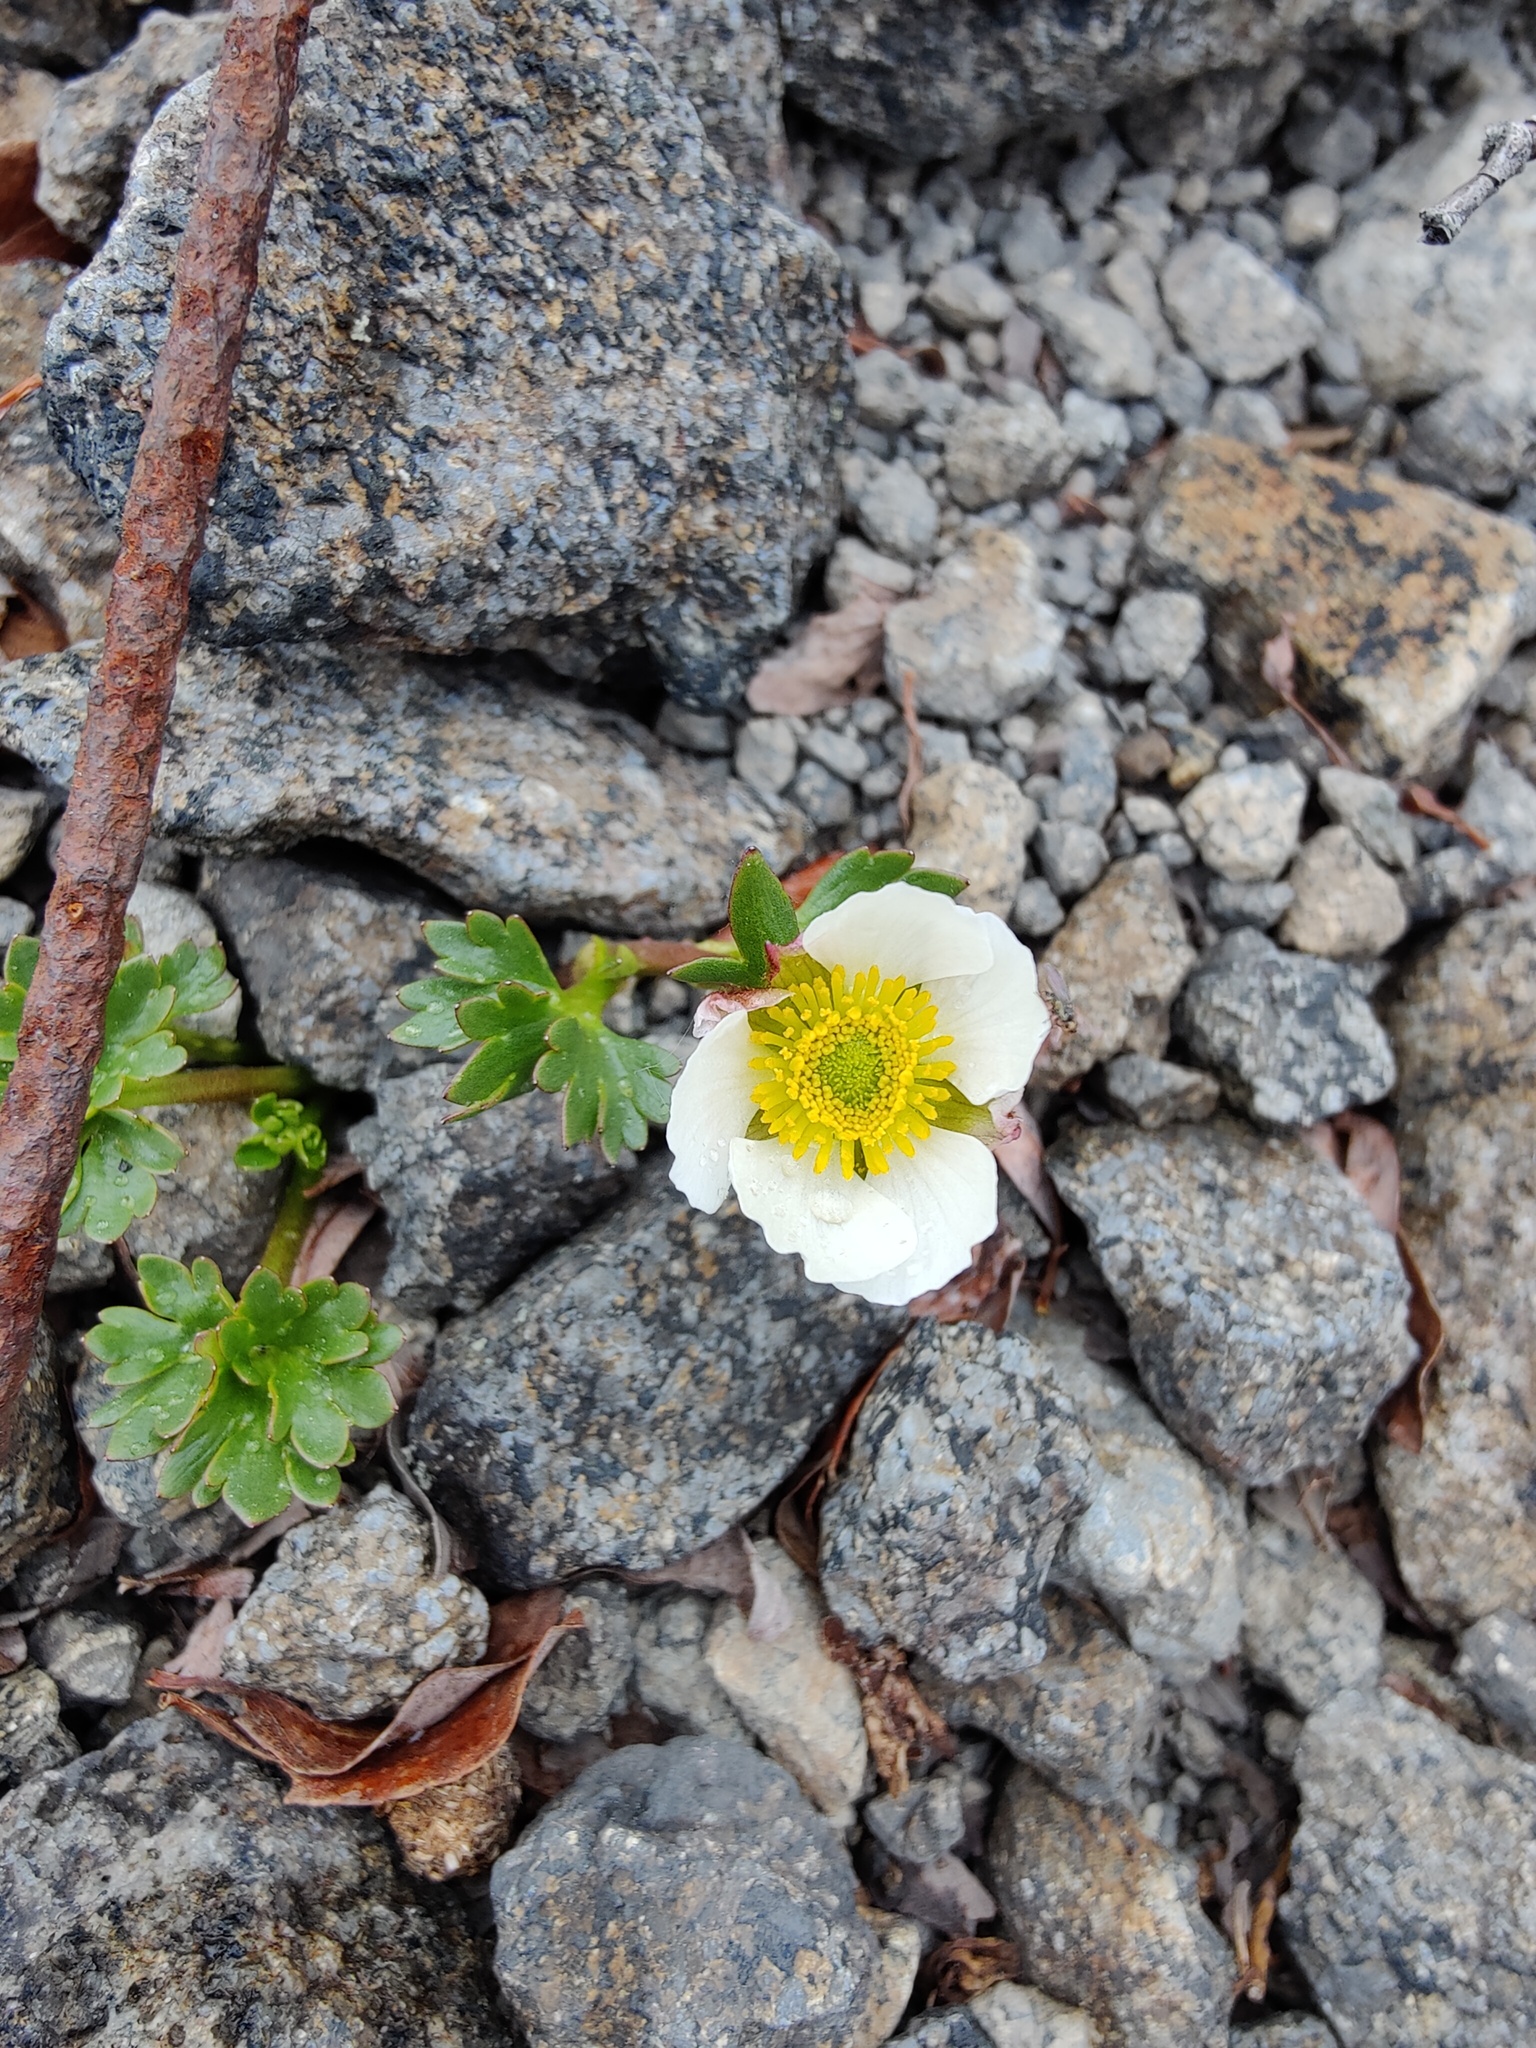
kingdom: Plantae
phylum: Tracheophyta
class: Magnoliopsida
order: Ranunculales
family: Ranunculaceae
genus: Ranunculus
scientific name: Ranunculus glacialis
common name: Glacier buttercup
